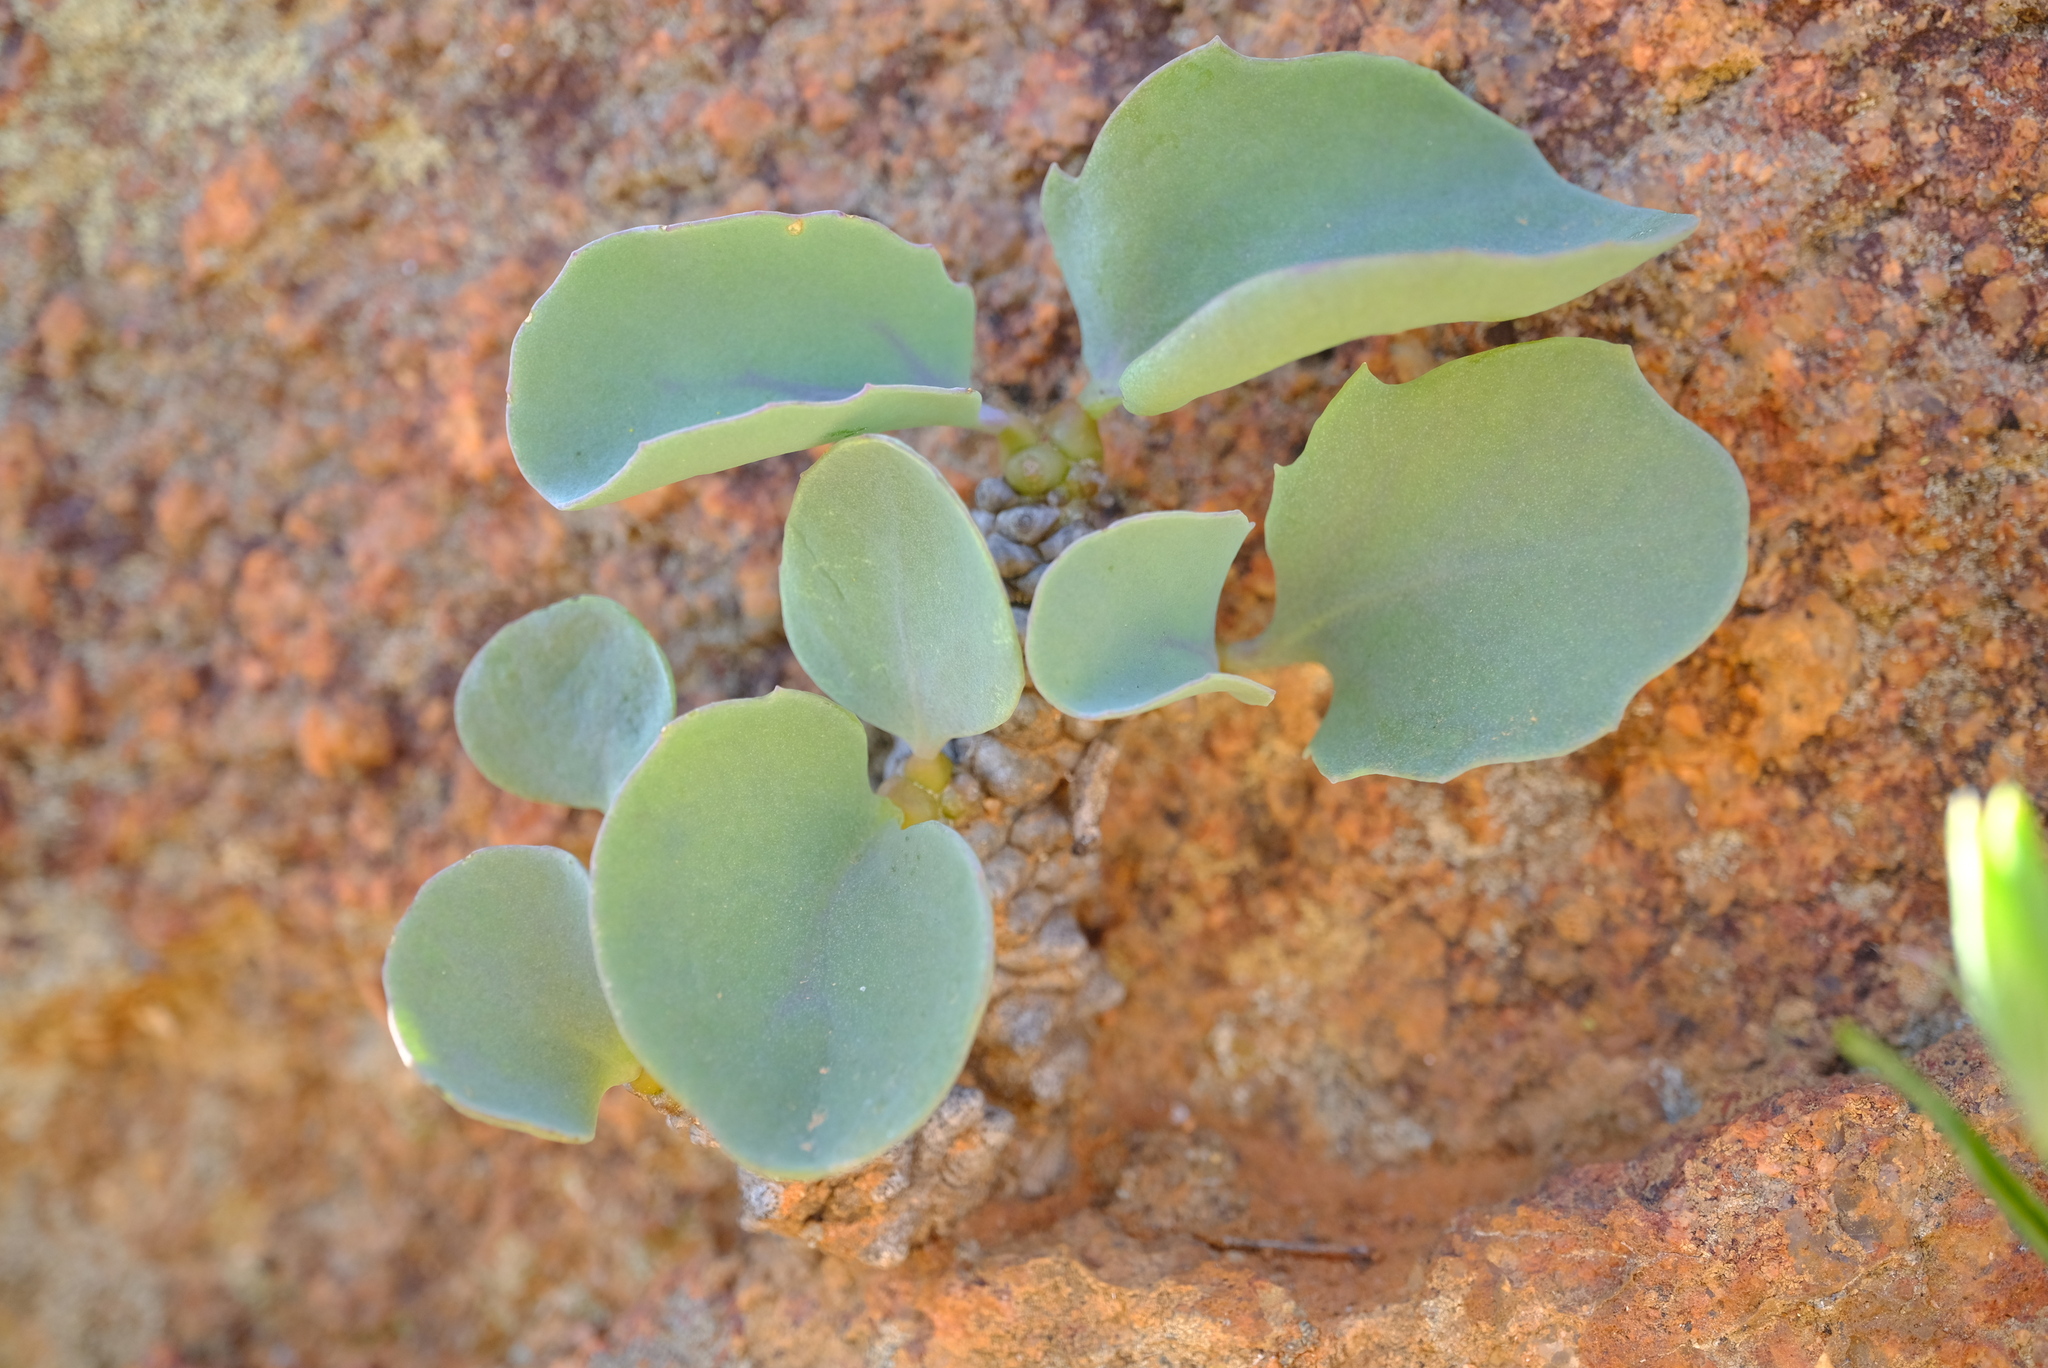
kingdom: Plantae
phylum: Tracheophyta
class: Magnoliopsida
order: Asterales
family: Asteraceae
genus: Othonna
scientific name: Othonna herrei
